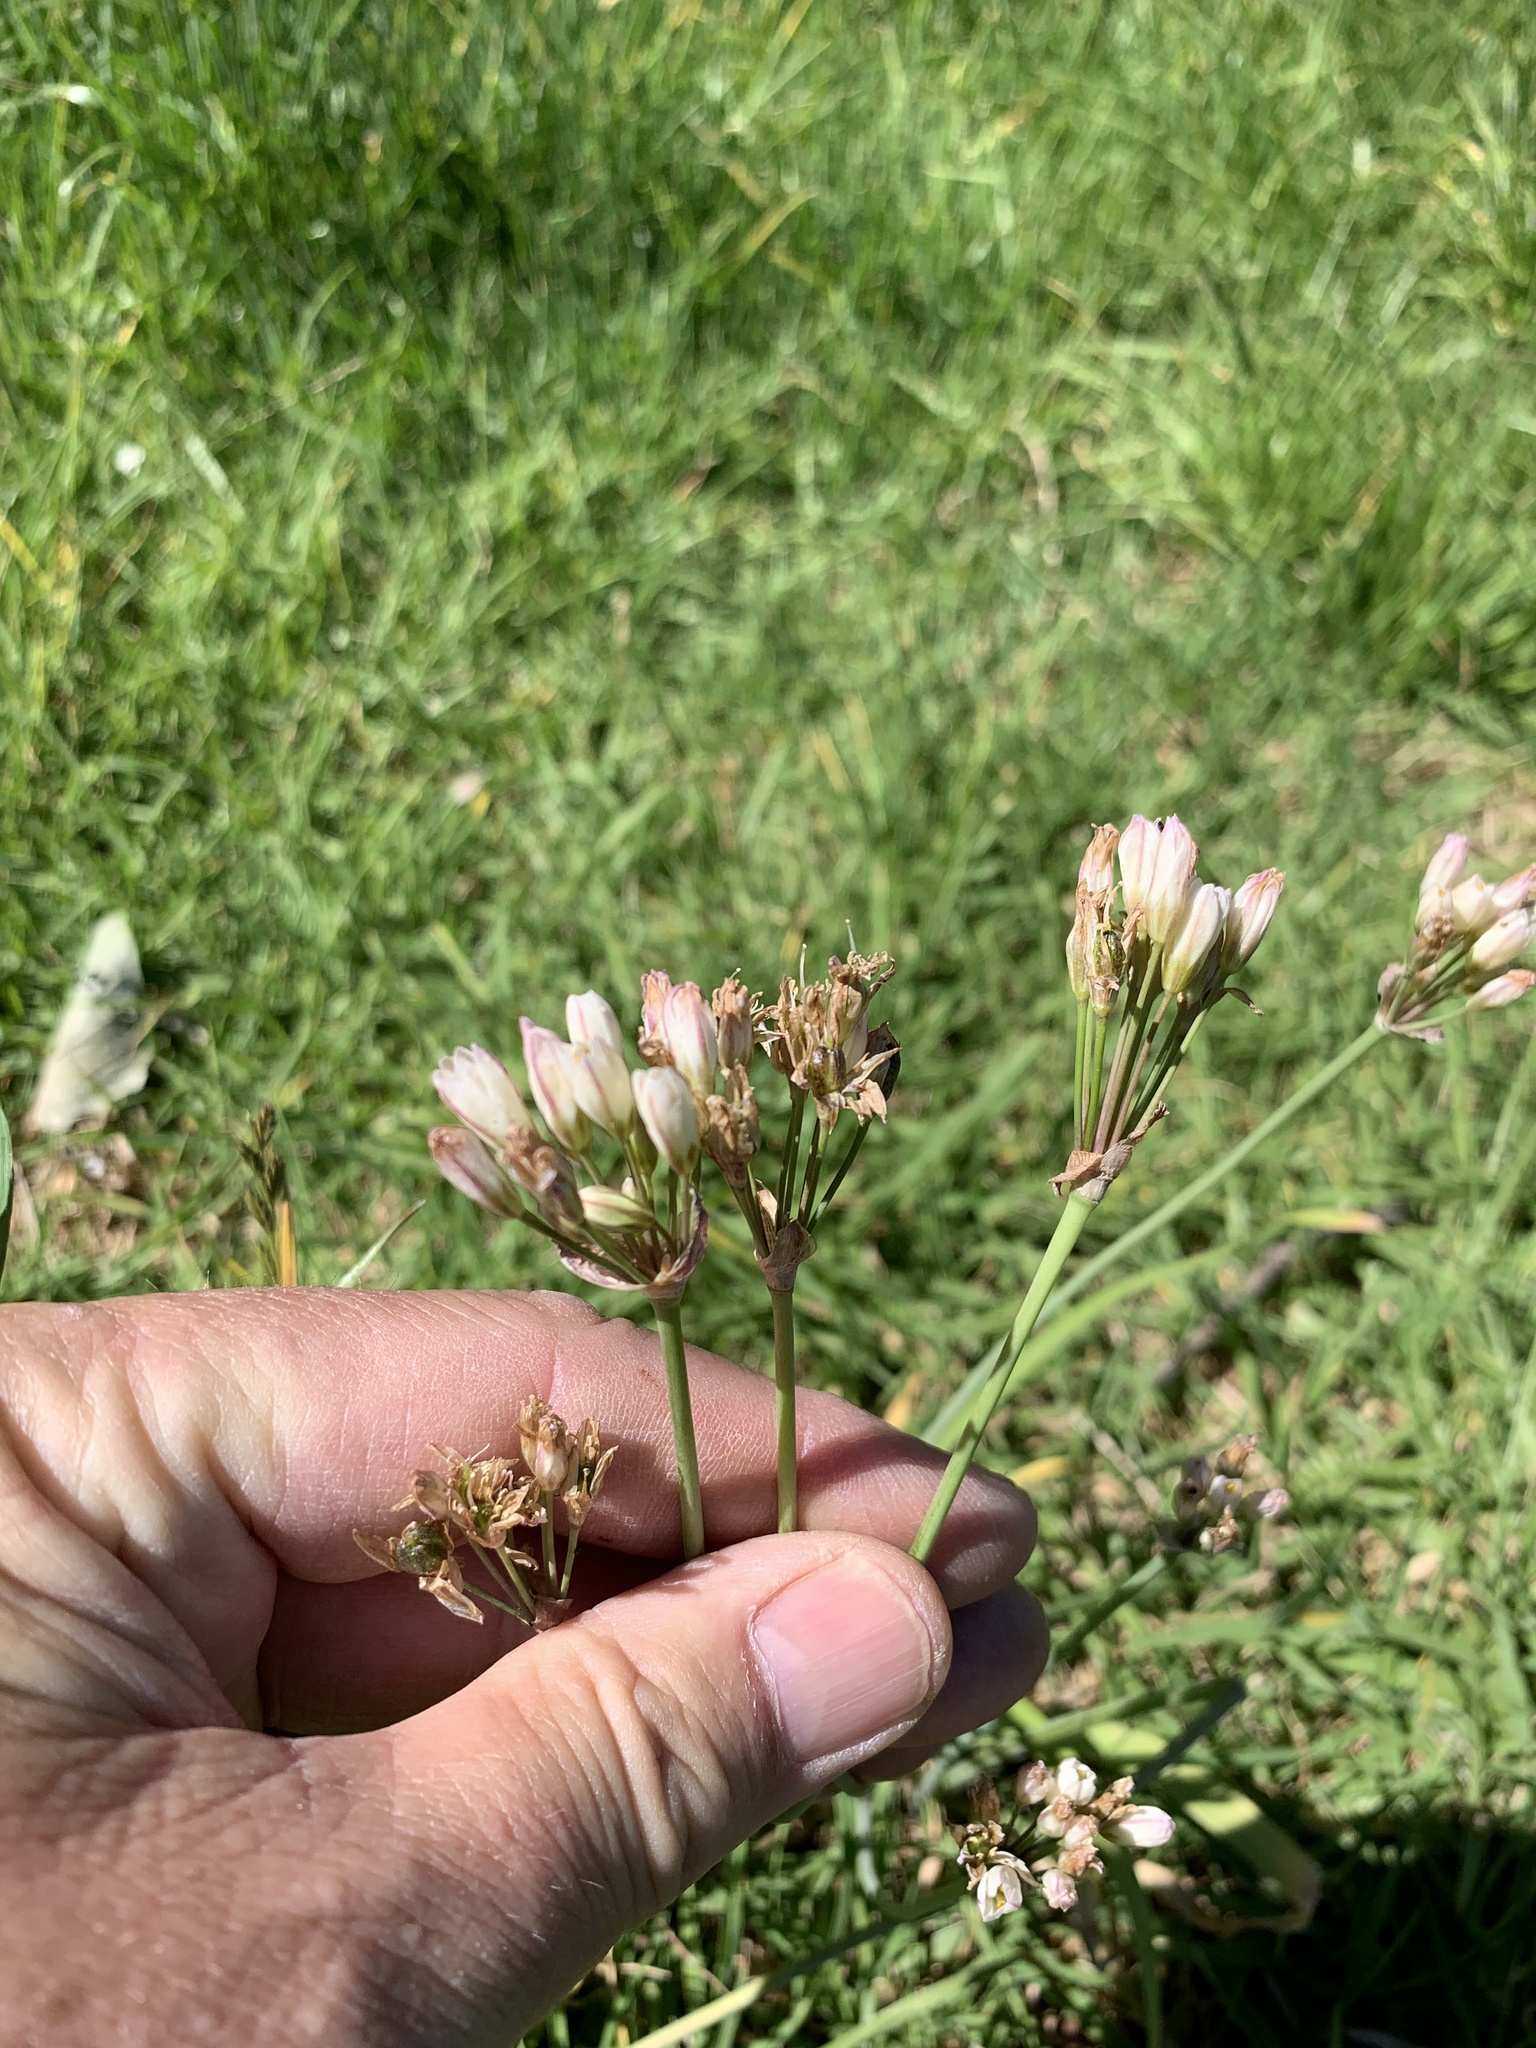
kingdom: Plantae
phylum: Tracheophyta
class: Liliopsida
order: Asparagales
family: Amaryllidaceae
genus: Nothoscordum
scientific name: Nothoscordum gracile
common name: Slender false garlic
